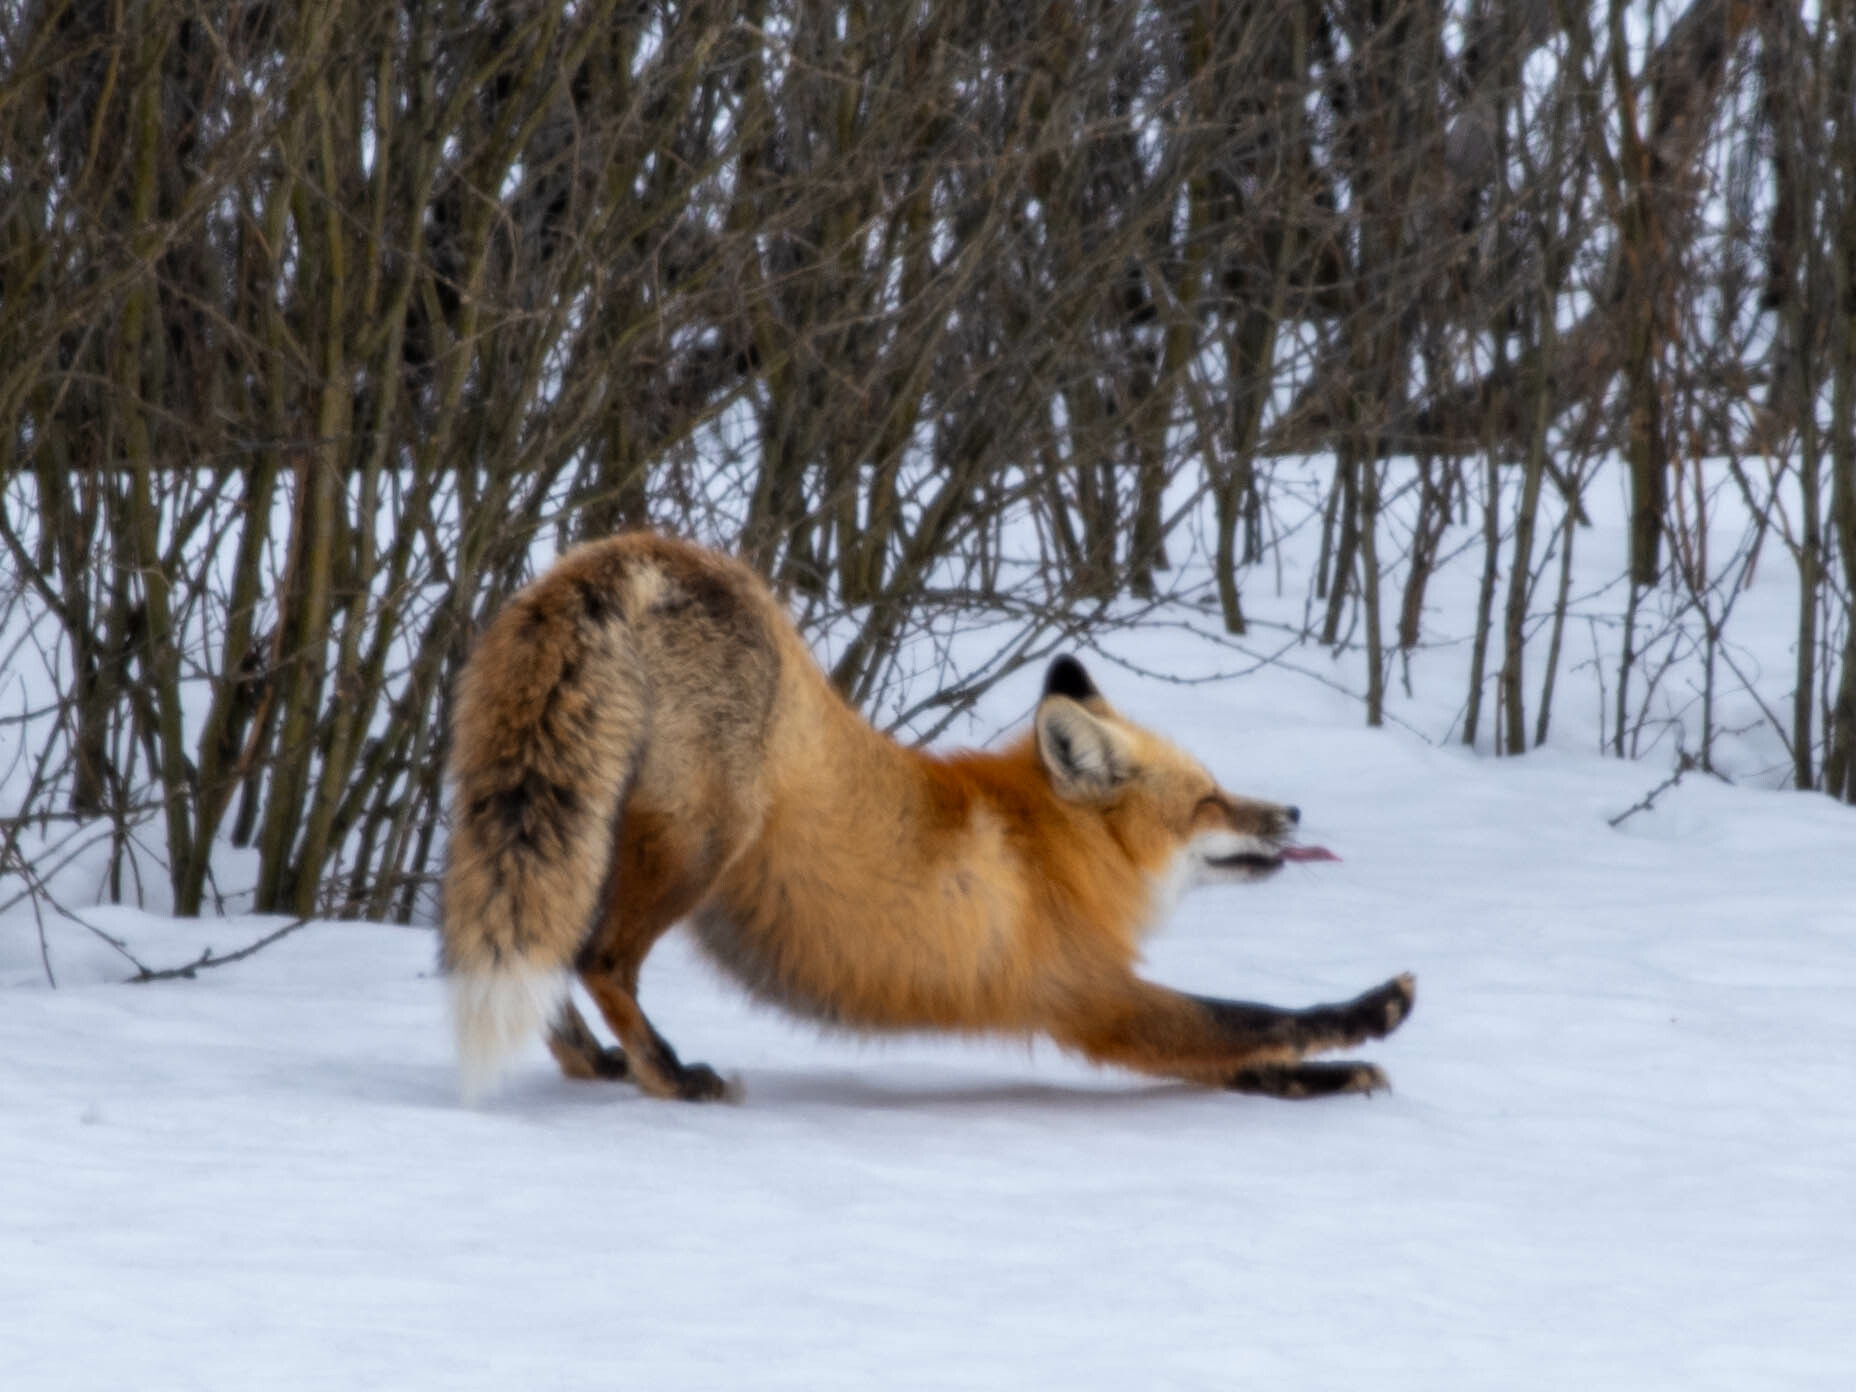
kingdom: Animalia
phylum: Chordata
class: Mammalia
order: Carnivora
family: Canidae
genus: Vulpes
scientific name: Vulpes vulpes
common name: Red fox
